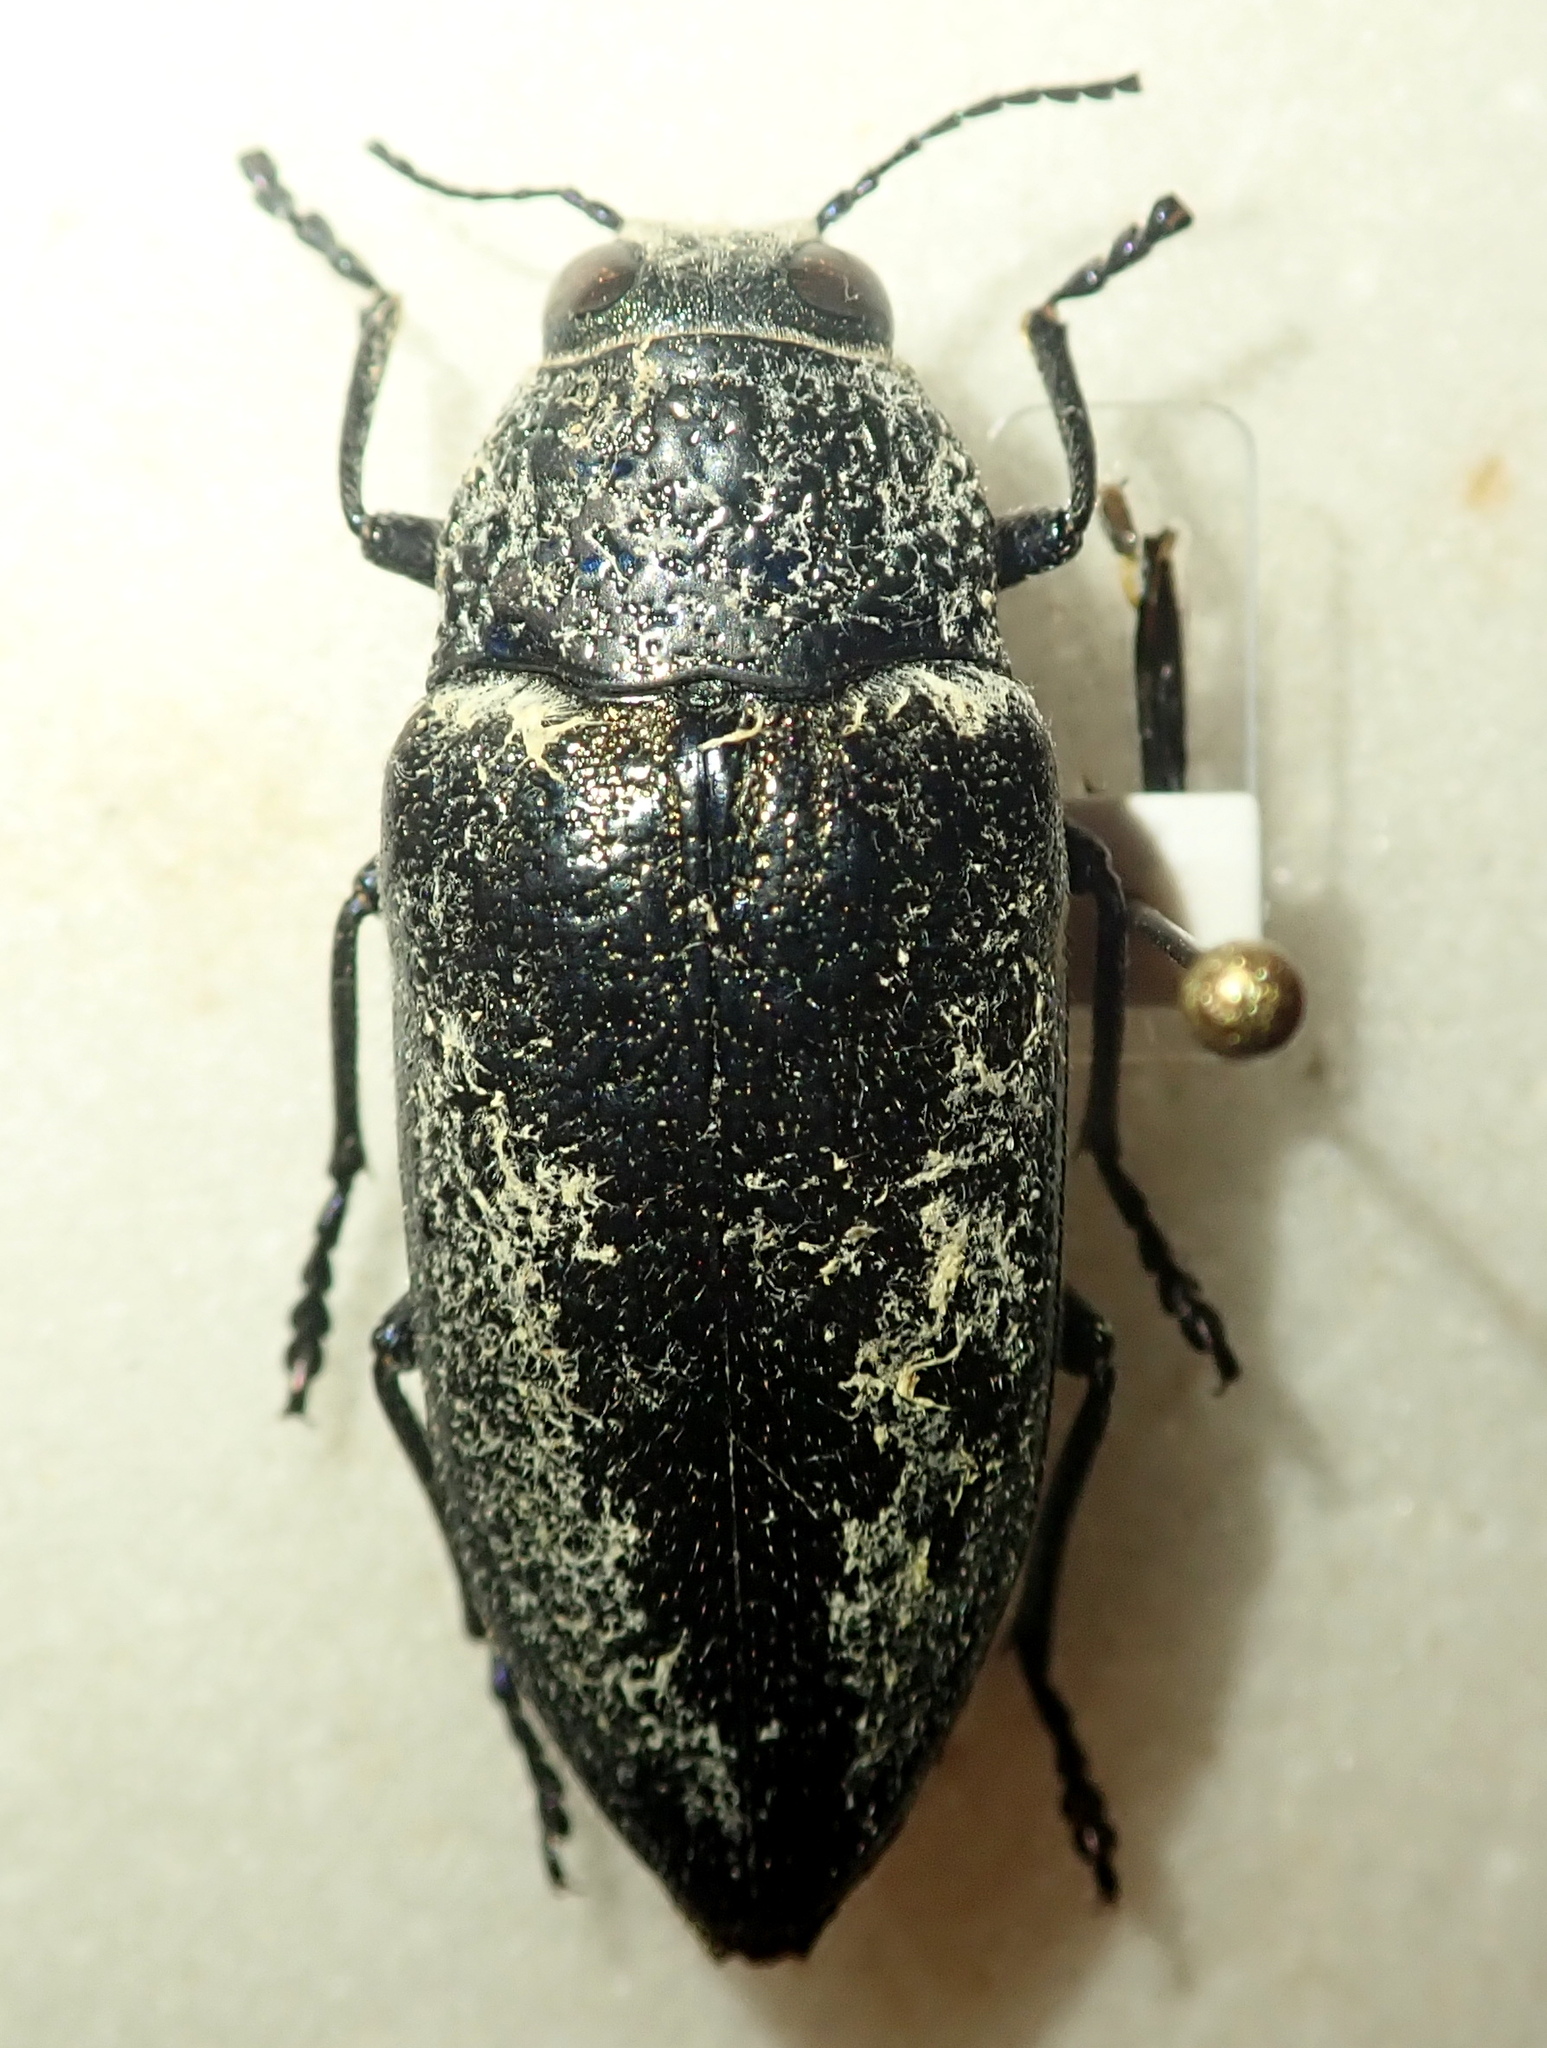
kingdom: Animalia
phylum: Arthropoda
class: Insecta
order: Coleoptera
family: Buprestidae
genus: Gyascutus
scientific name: Gyascutus caelatus
